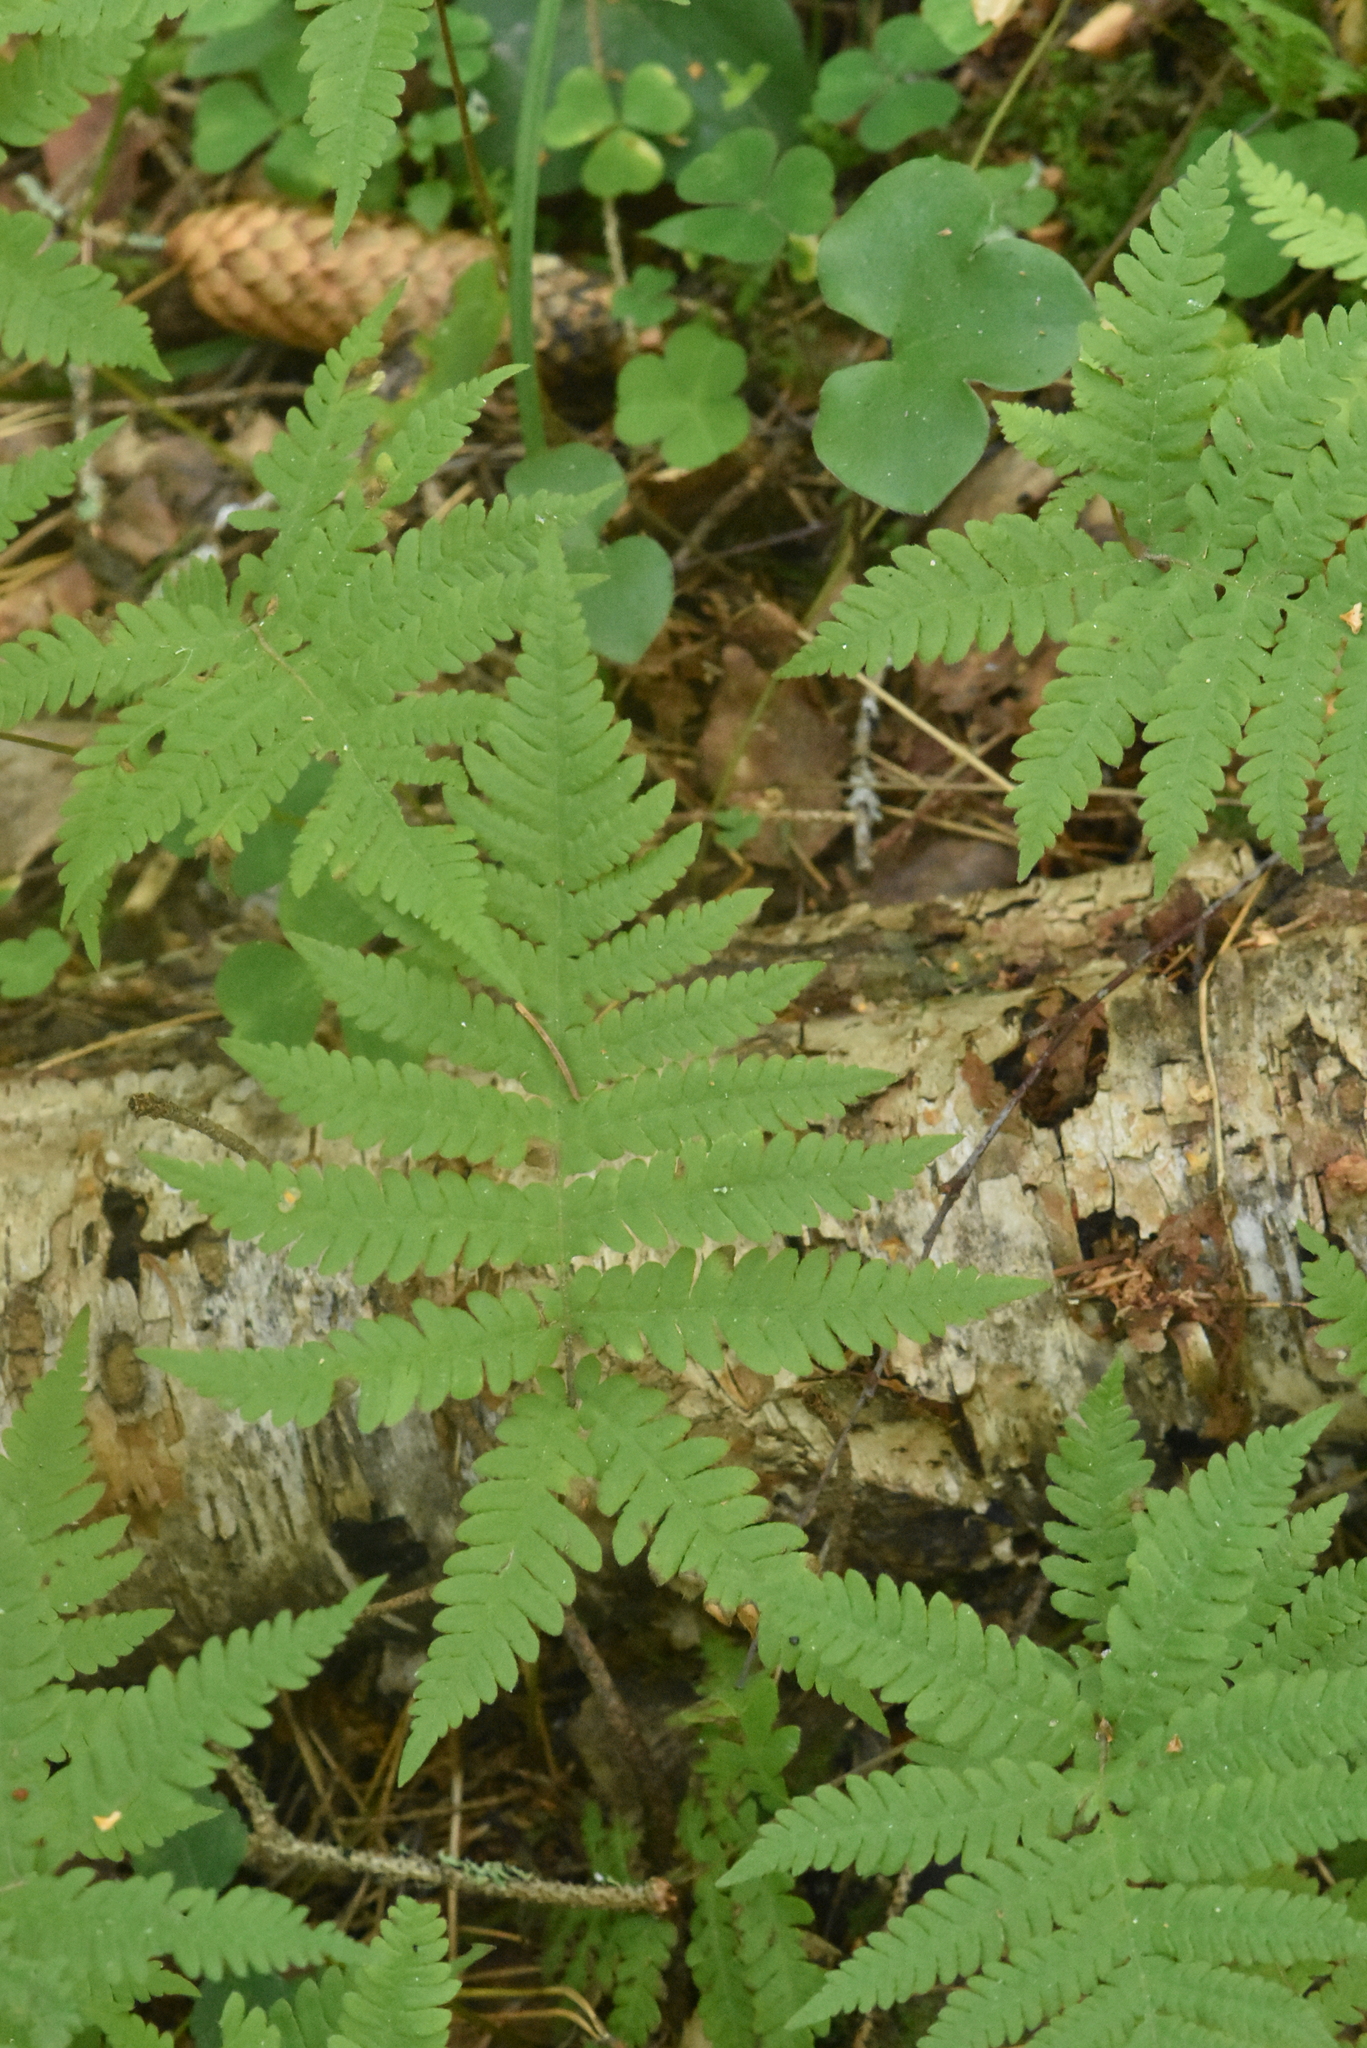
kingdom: Plantae
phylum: Tracheophyta
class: Polypodiopsida
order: Polypodiales
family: Thelypteridaceae
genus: Phegopteris
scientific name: Phegopteris connectilis
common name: Beech fern
